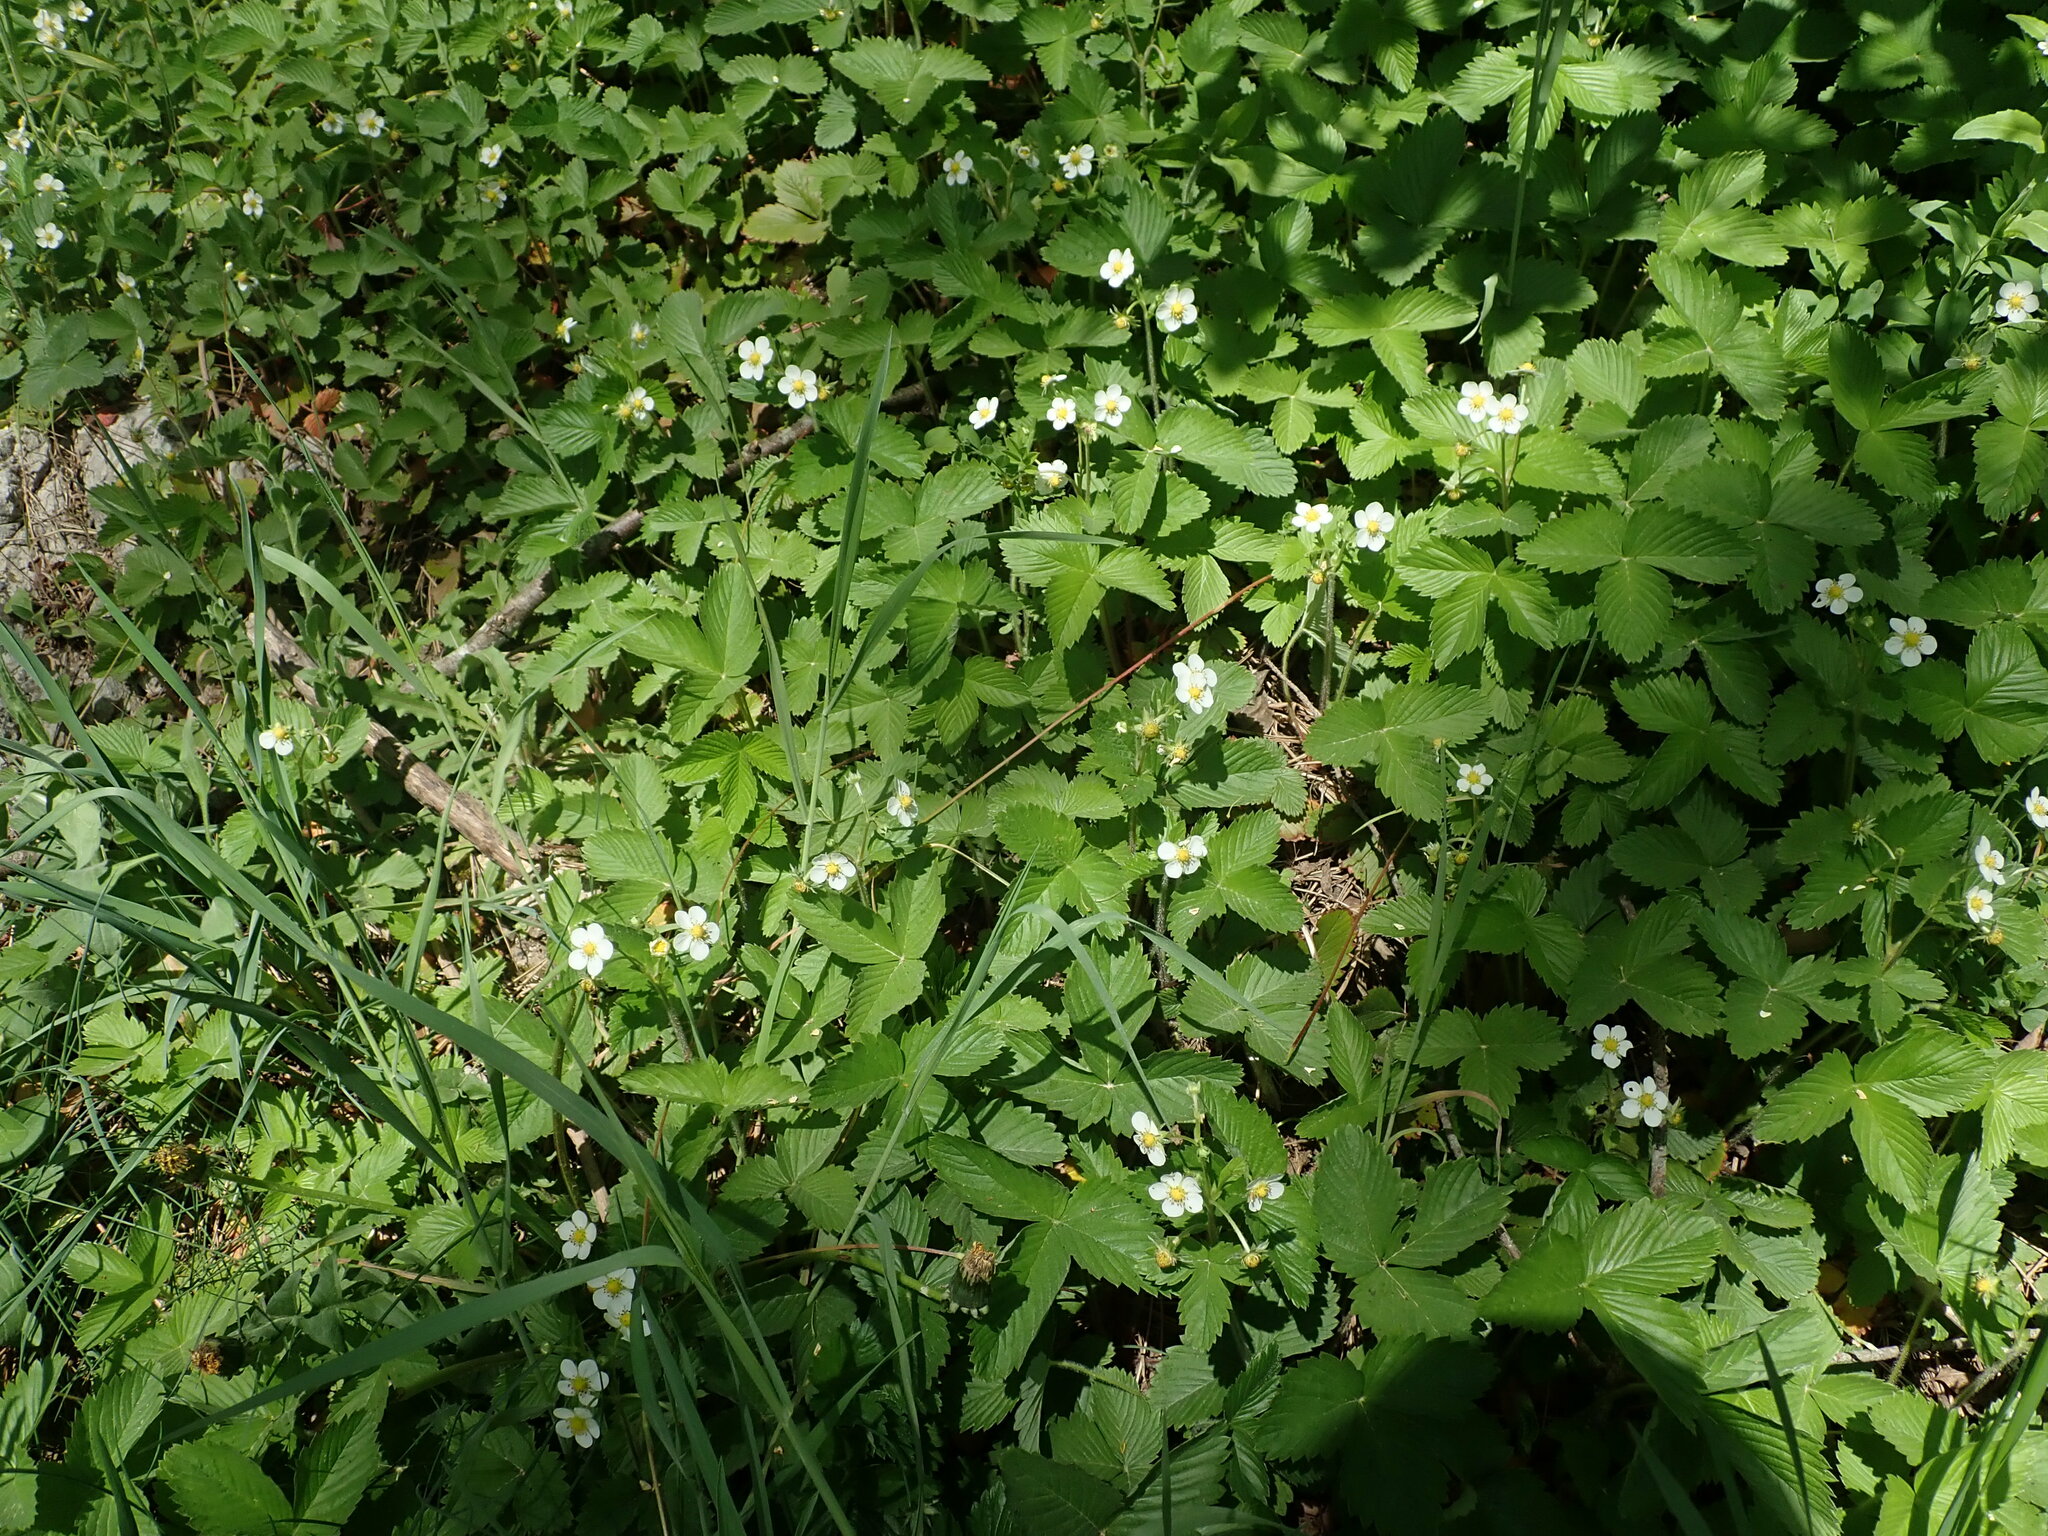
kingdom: Plantae
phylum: Tracheophyta
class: Magnoliopsida
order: Rosales
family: Rosaceae
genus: Fragaria
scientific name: Fragaria vesca
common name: Wild strawberry
